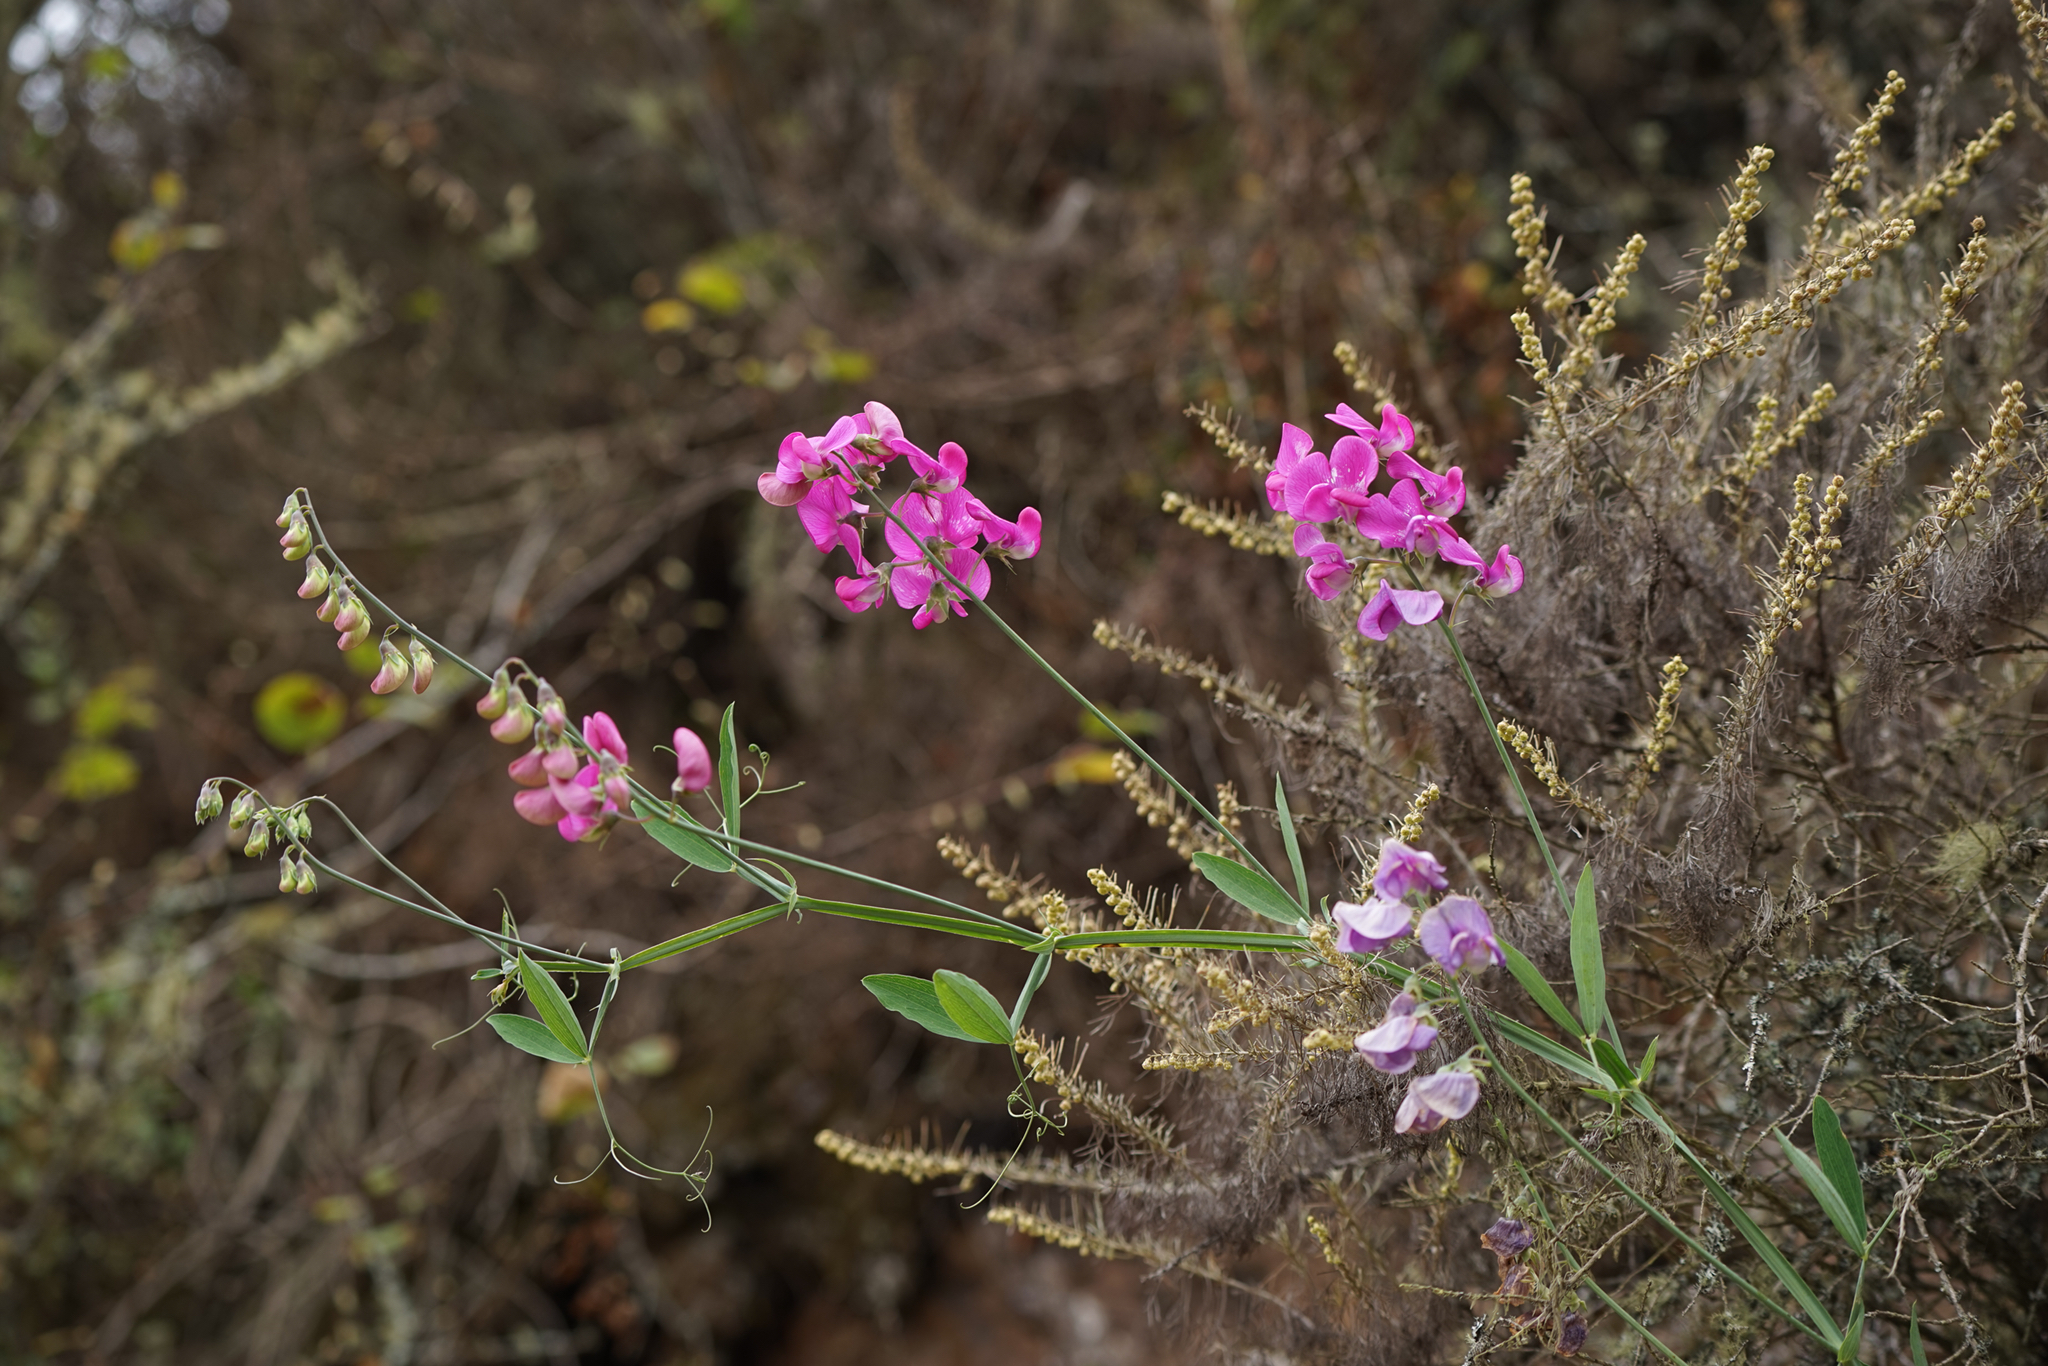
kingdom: Plantae
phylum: Tracheophyta
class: Magnoliopsida
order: Fabales
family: Fabaceae
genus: Lathyrus
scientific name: Lathyrus latifolius
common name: Perennial pea
